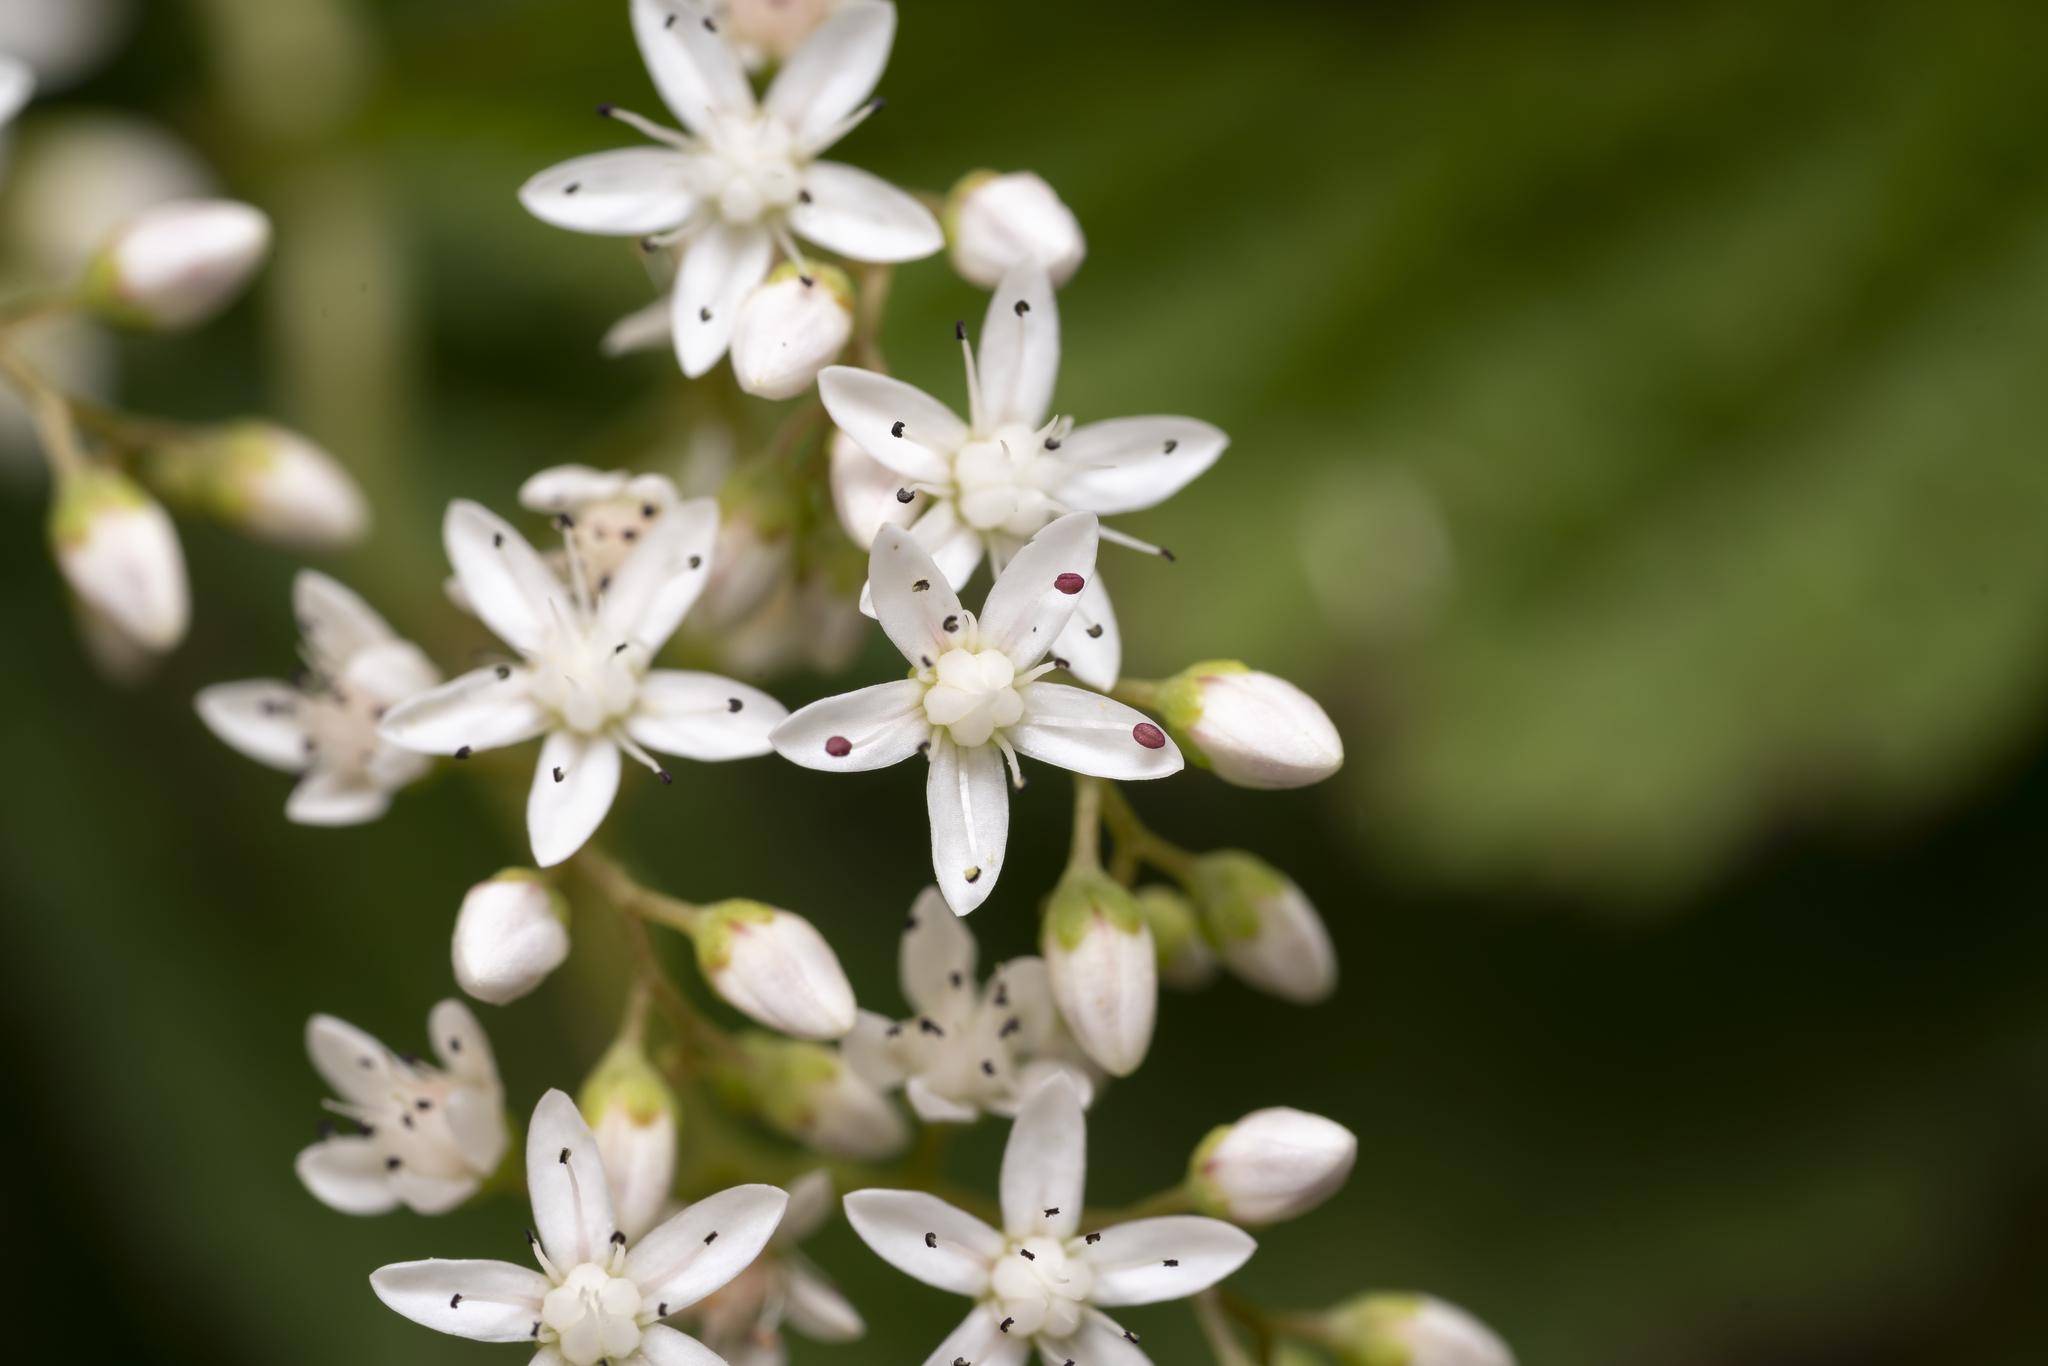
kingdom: Plantae
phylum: Tracheophyta
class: Magnoliopsida
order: Saxifragales
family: Crassulaceae
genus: Sedum
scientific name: Sedum album
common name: White stonecrop
